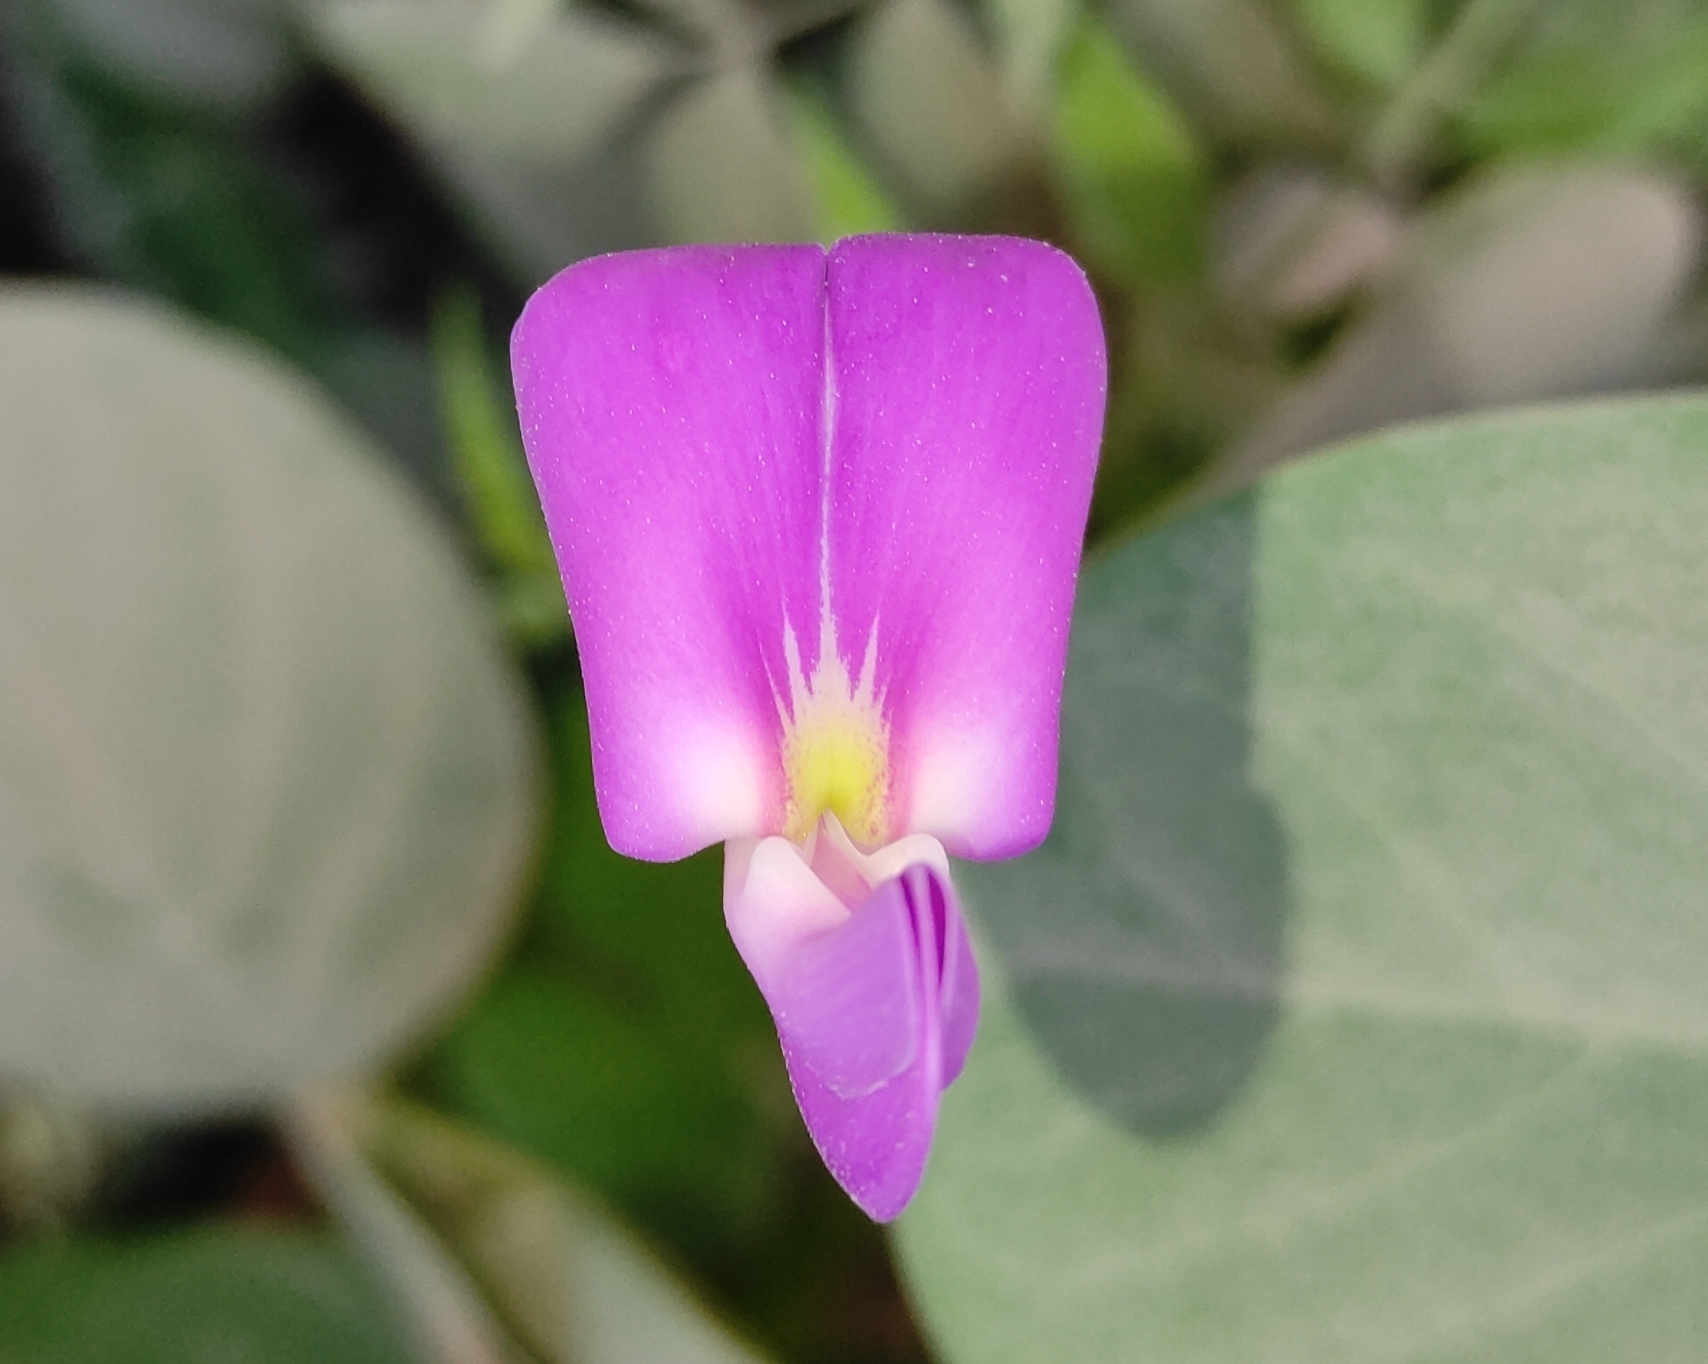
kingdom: Plantae
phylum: Tracheophyta
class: Magnoliopsida
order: Fabales
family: Fabaceae
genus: Canavalia
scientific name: Canavalia rosea
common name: Beach-bean
